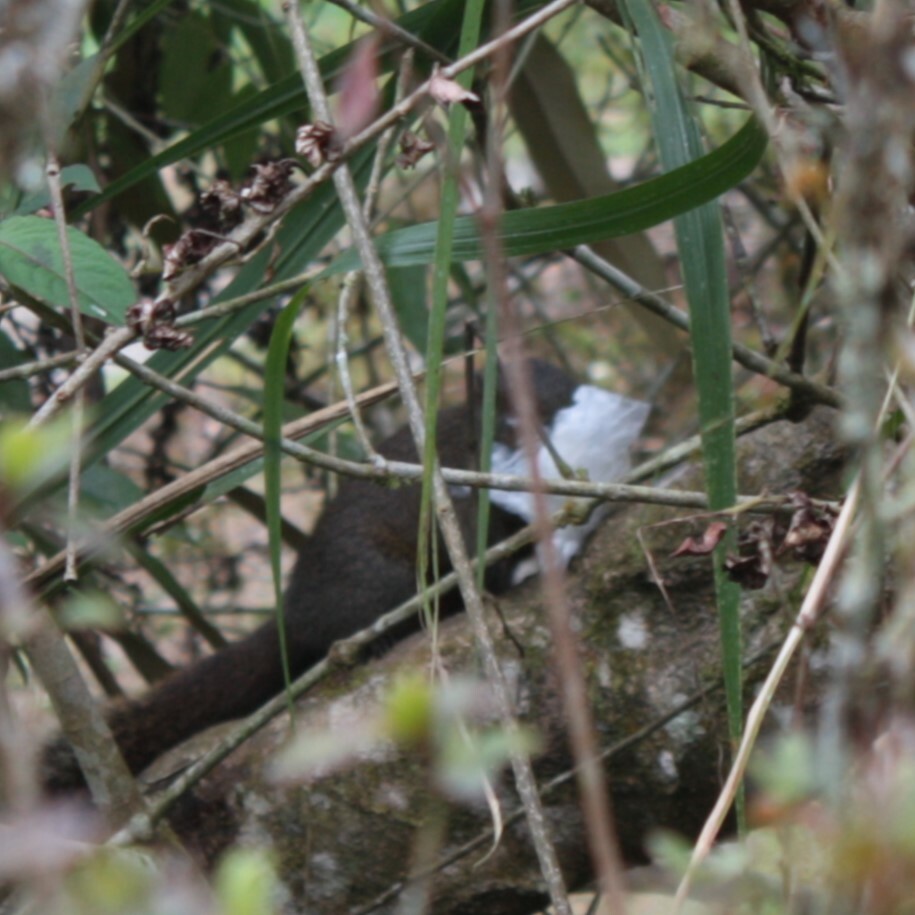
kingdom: Animalia
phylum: Chordata
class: Mammalia
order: Rodentia
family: Sciuridae
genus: Callosciurus
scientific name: Callosciurus erythraeus
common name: Pallas's squirrel
